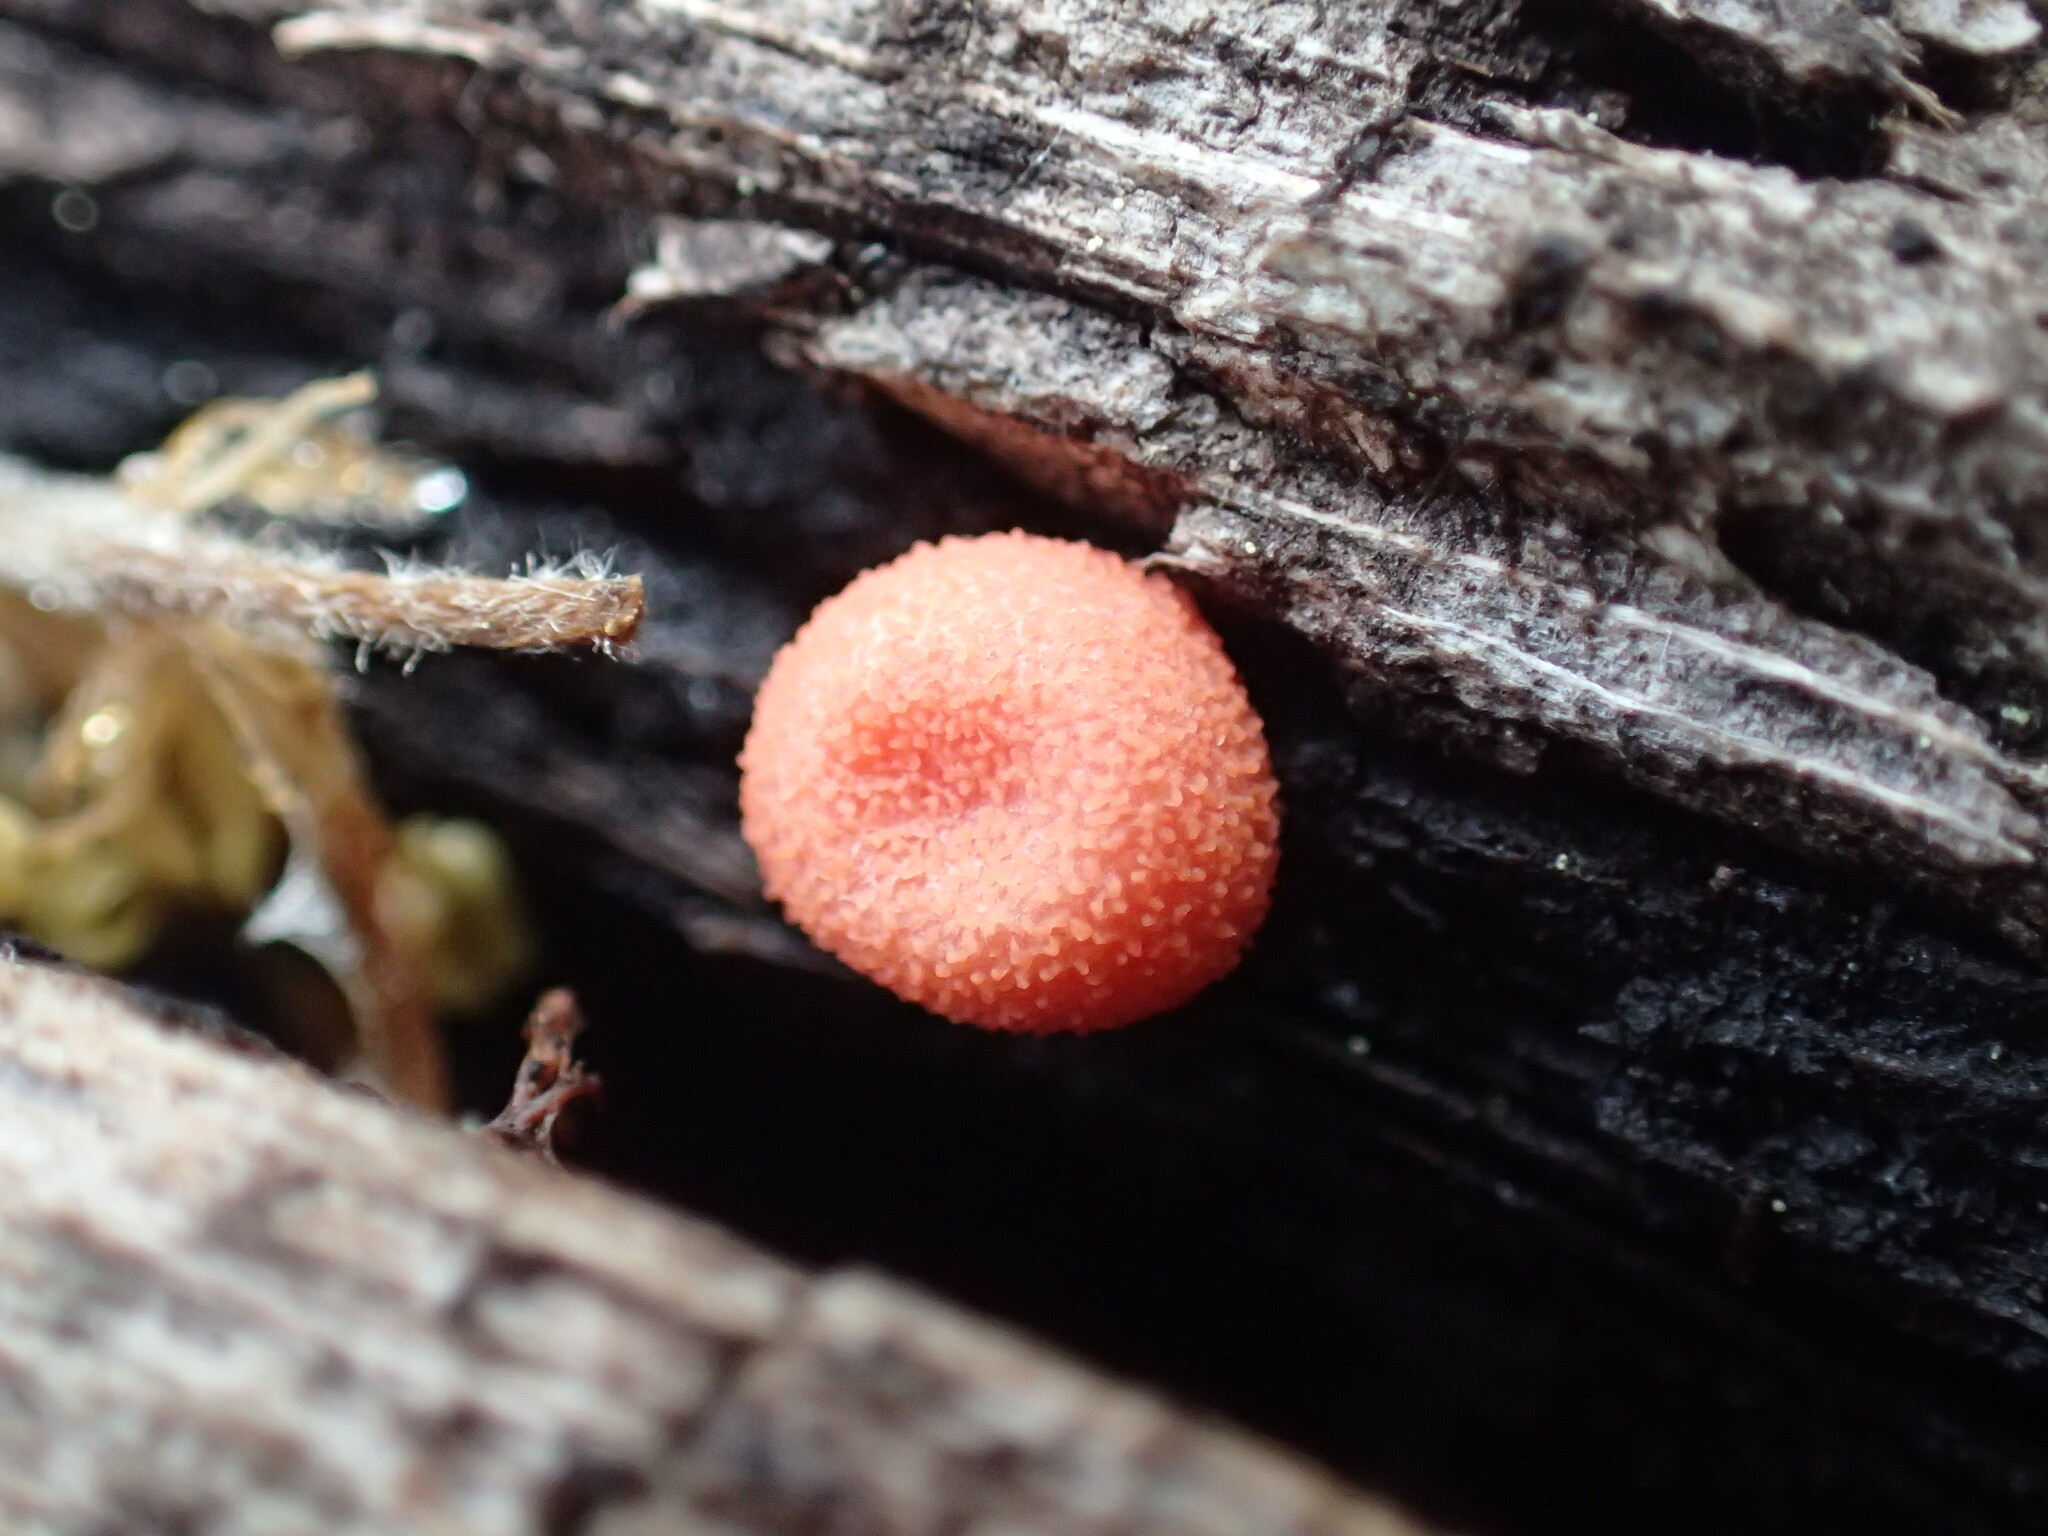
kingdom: Protozoa
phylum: Mycetozoa
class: Myxomycetes
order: Cribrariales
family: Tubiferaceae
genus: Lycogala
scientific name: Lycogala epidendrum
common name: Wolf's milk
